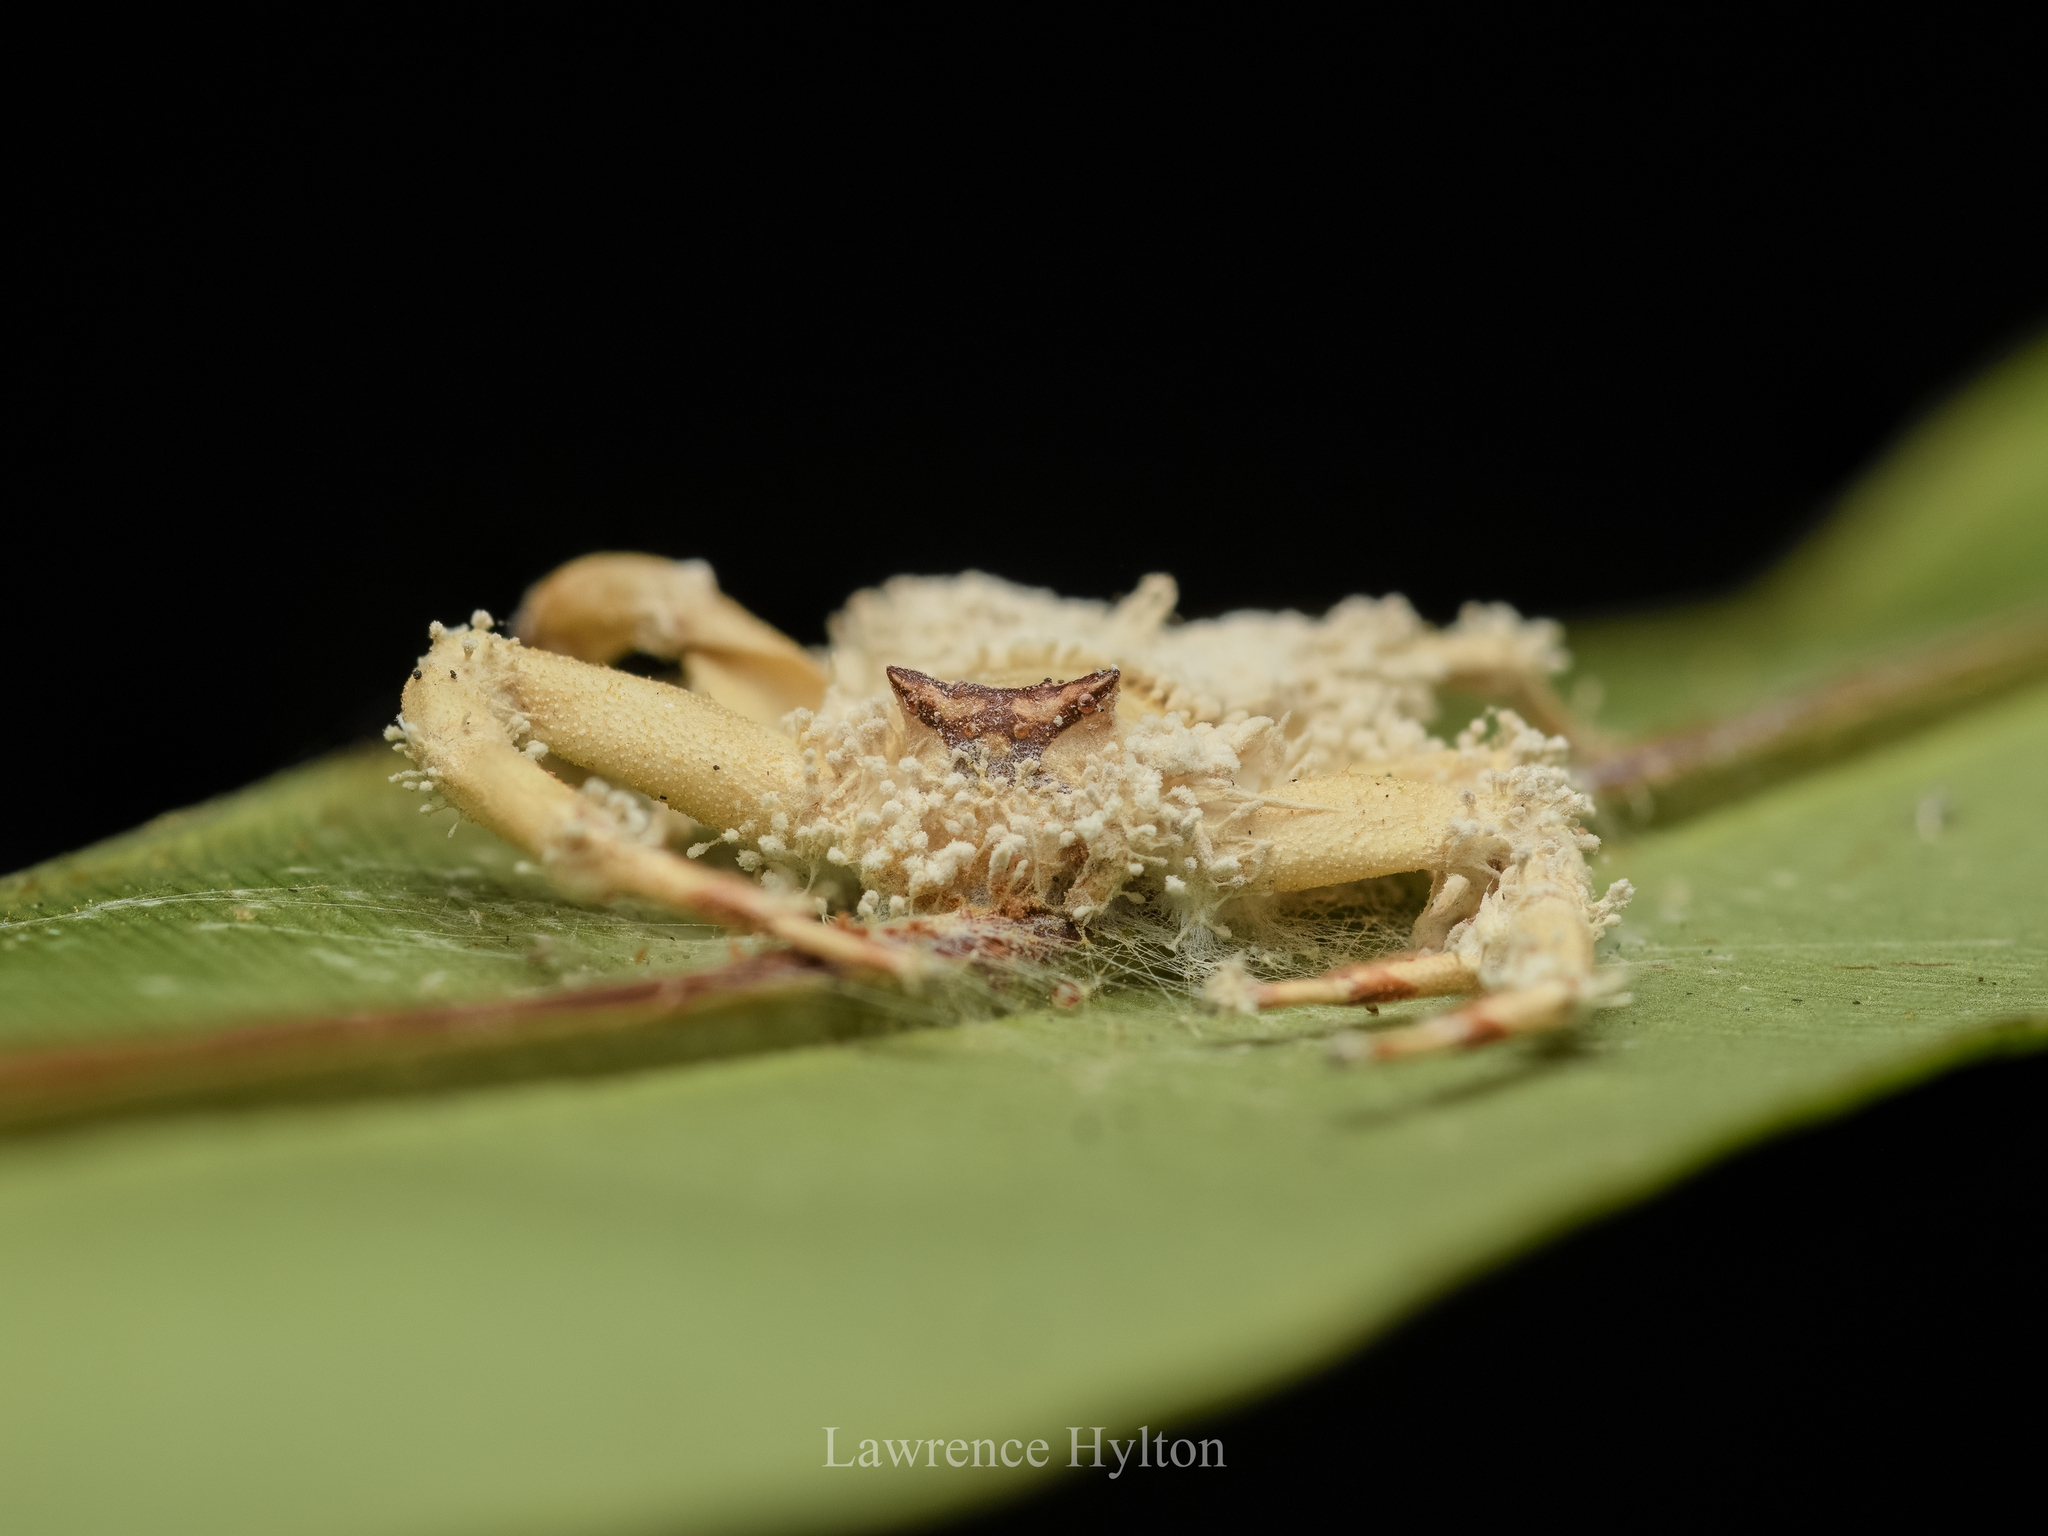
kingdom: Animalia
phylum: Arthropoda
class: Arachnida
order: Araneae
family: Thomisidae
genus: Thomisus
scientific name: Thomisus labefactus
